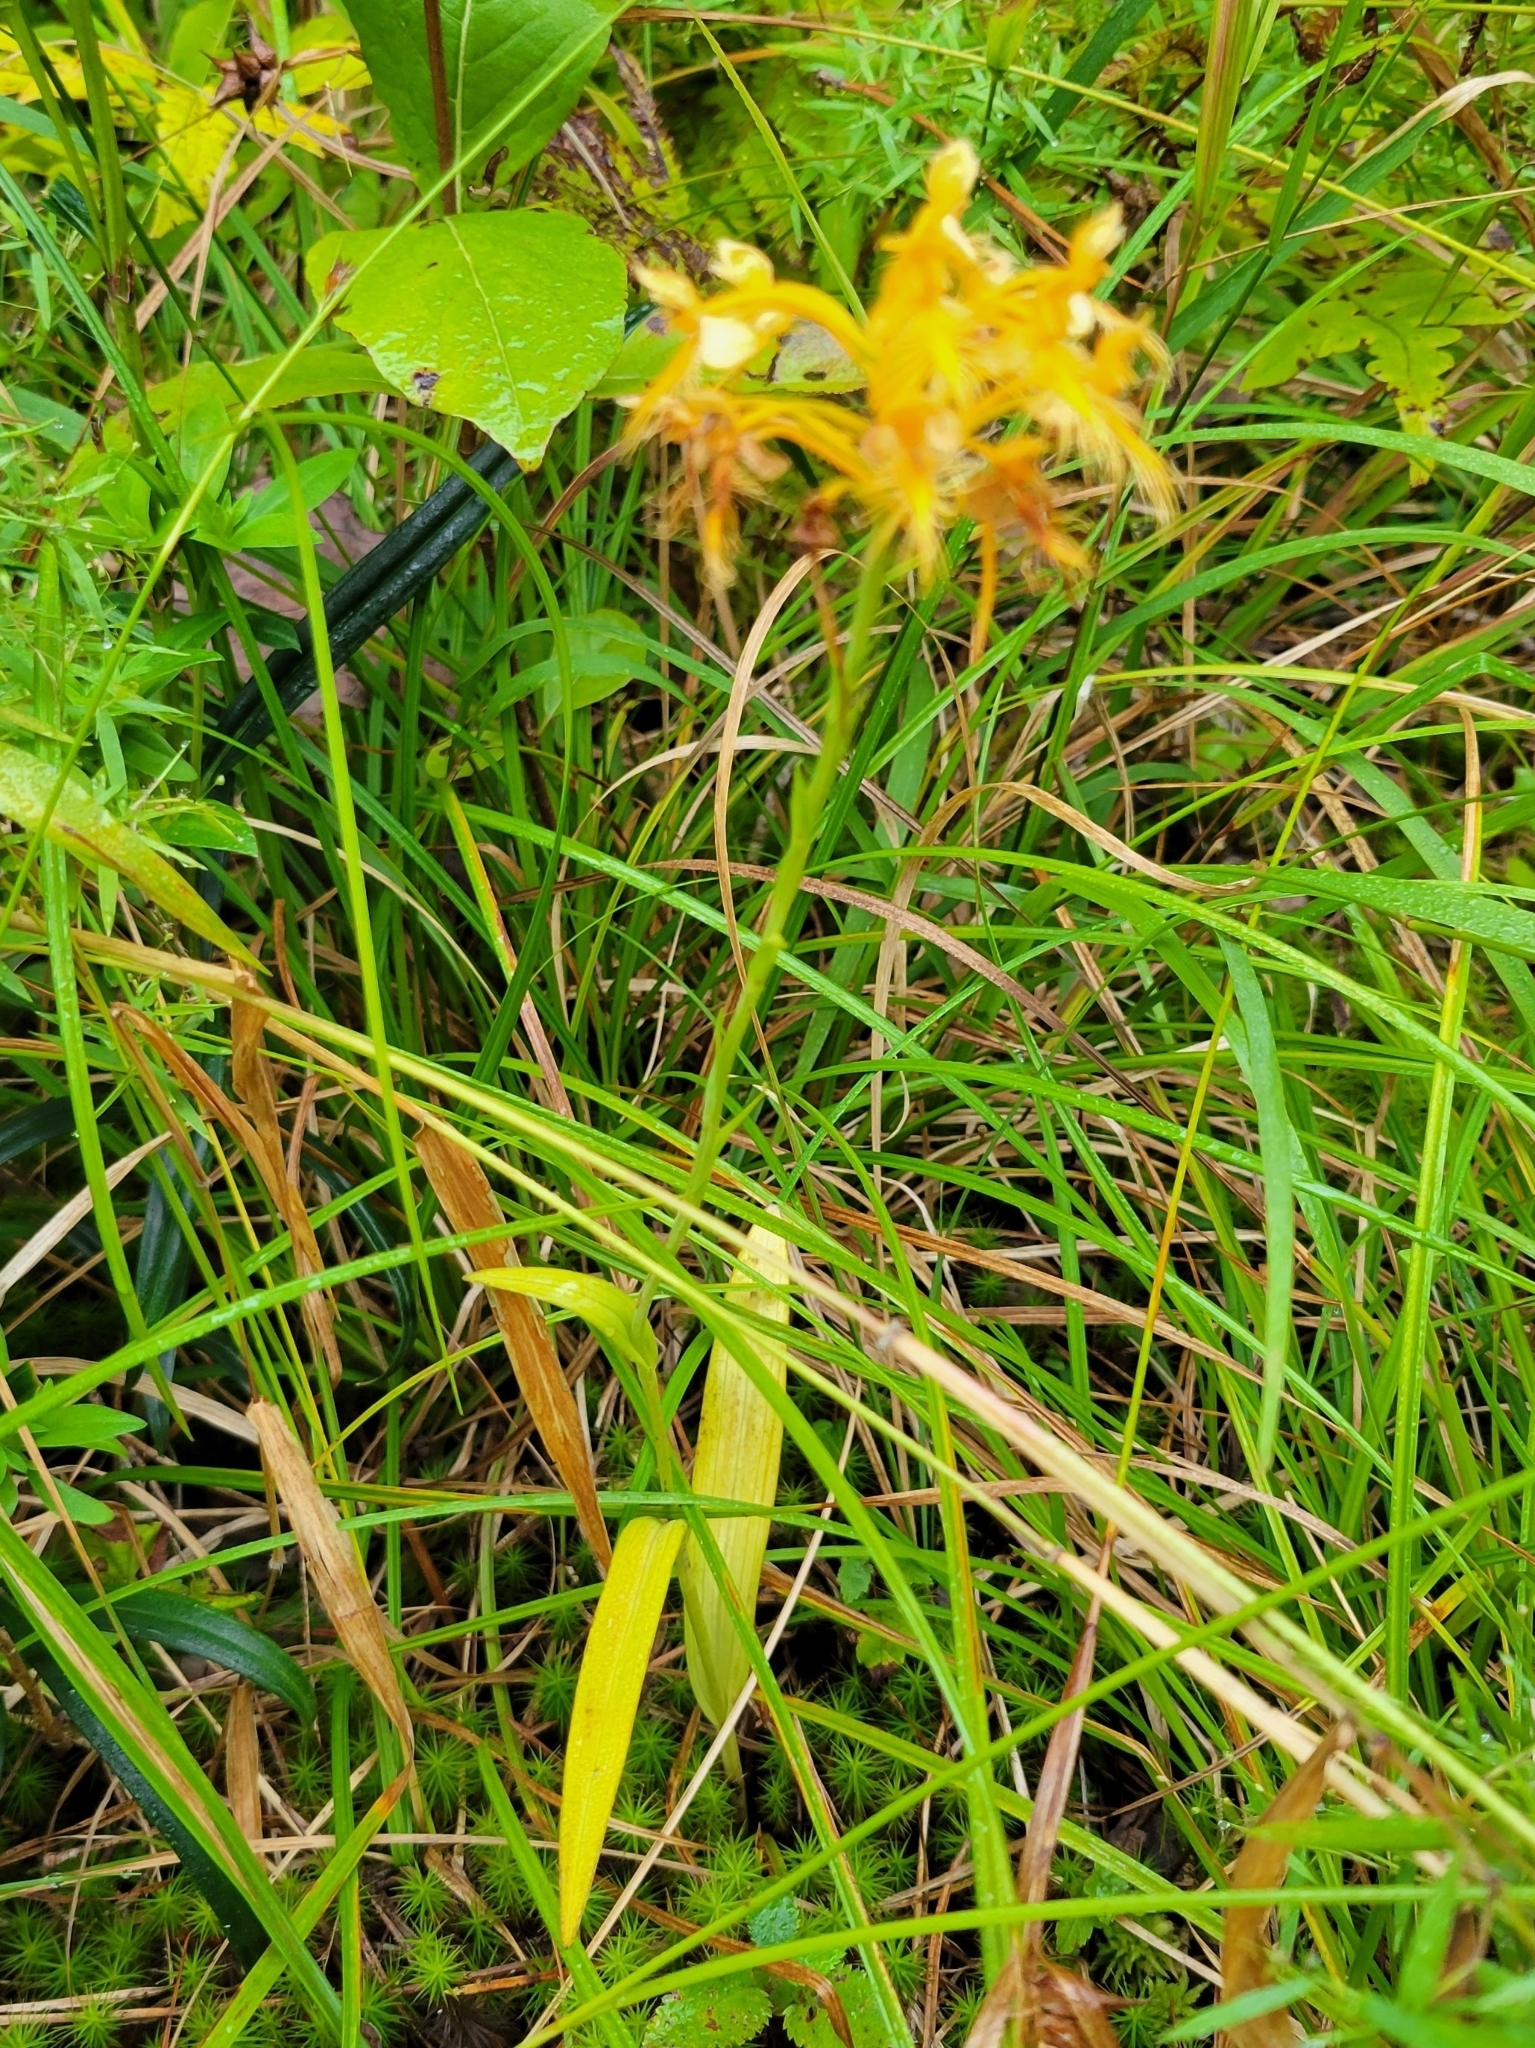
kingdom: Plantae
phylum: Tracheophyta
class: Liliopsida
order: Asparagales
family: Orchidaceae
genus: Platanthera
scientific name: Platanthera ciliaris
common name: Yellow fringed orchid
